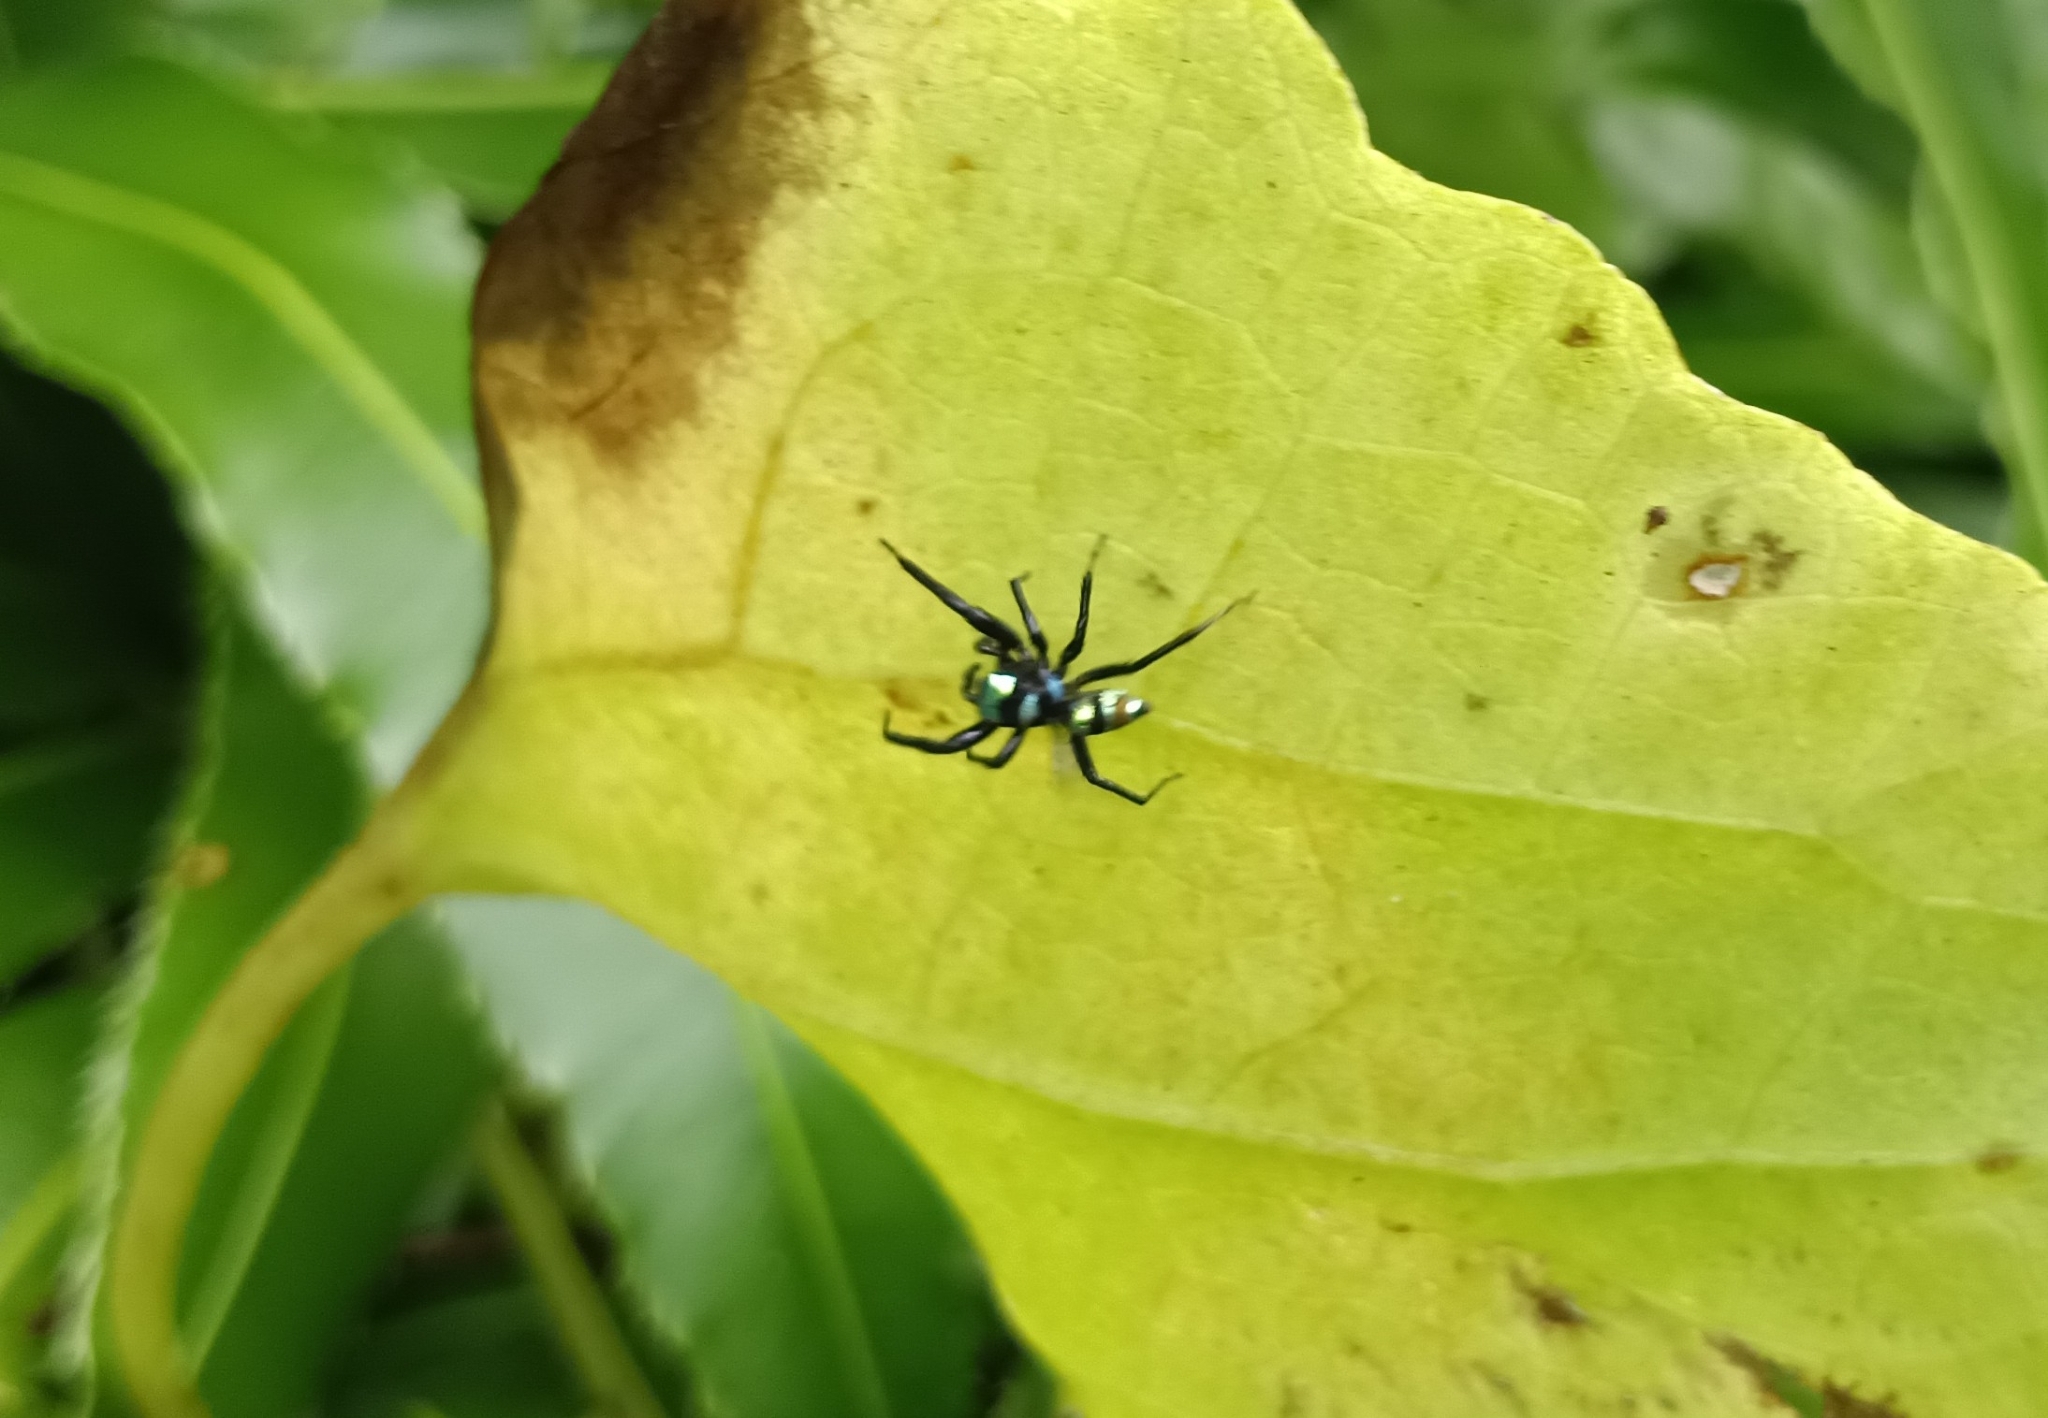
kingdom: Animalia
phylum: Arthropoda
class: Arachnida
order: Araneae
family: Salticidae
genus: Phintella
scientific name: Phintella vittata
